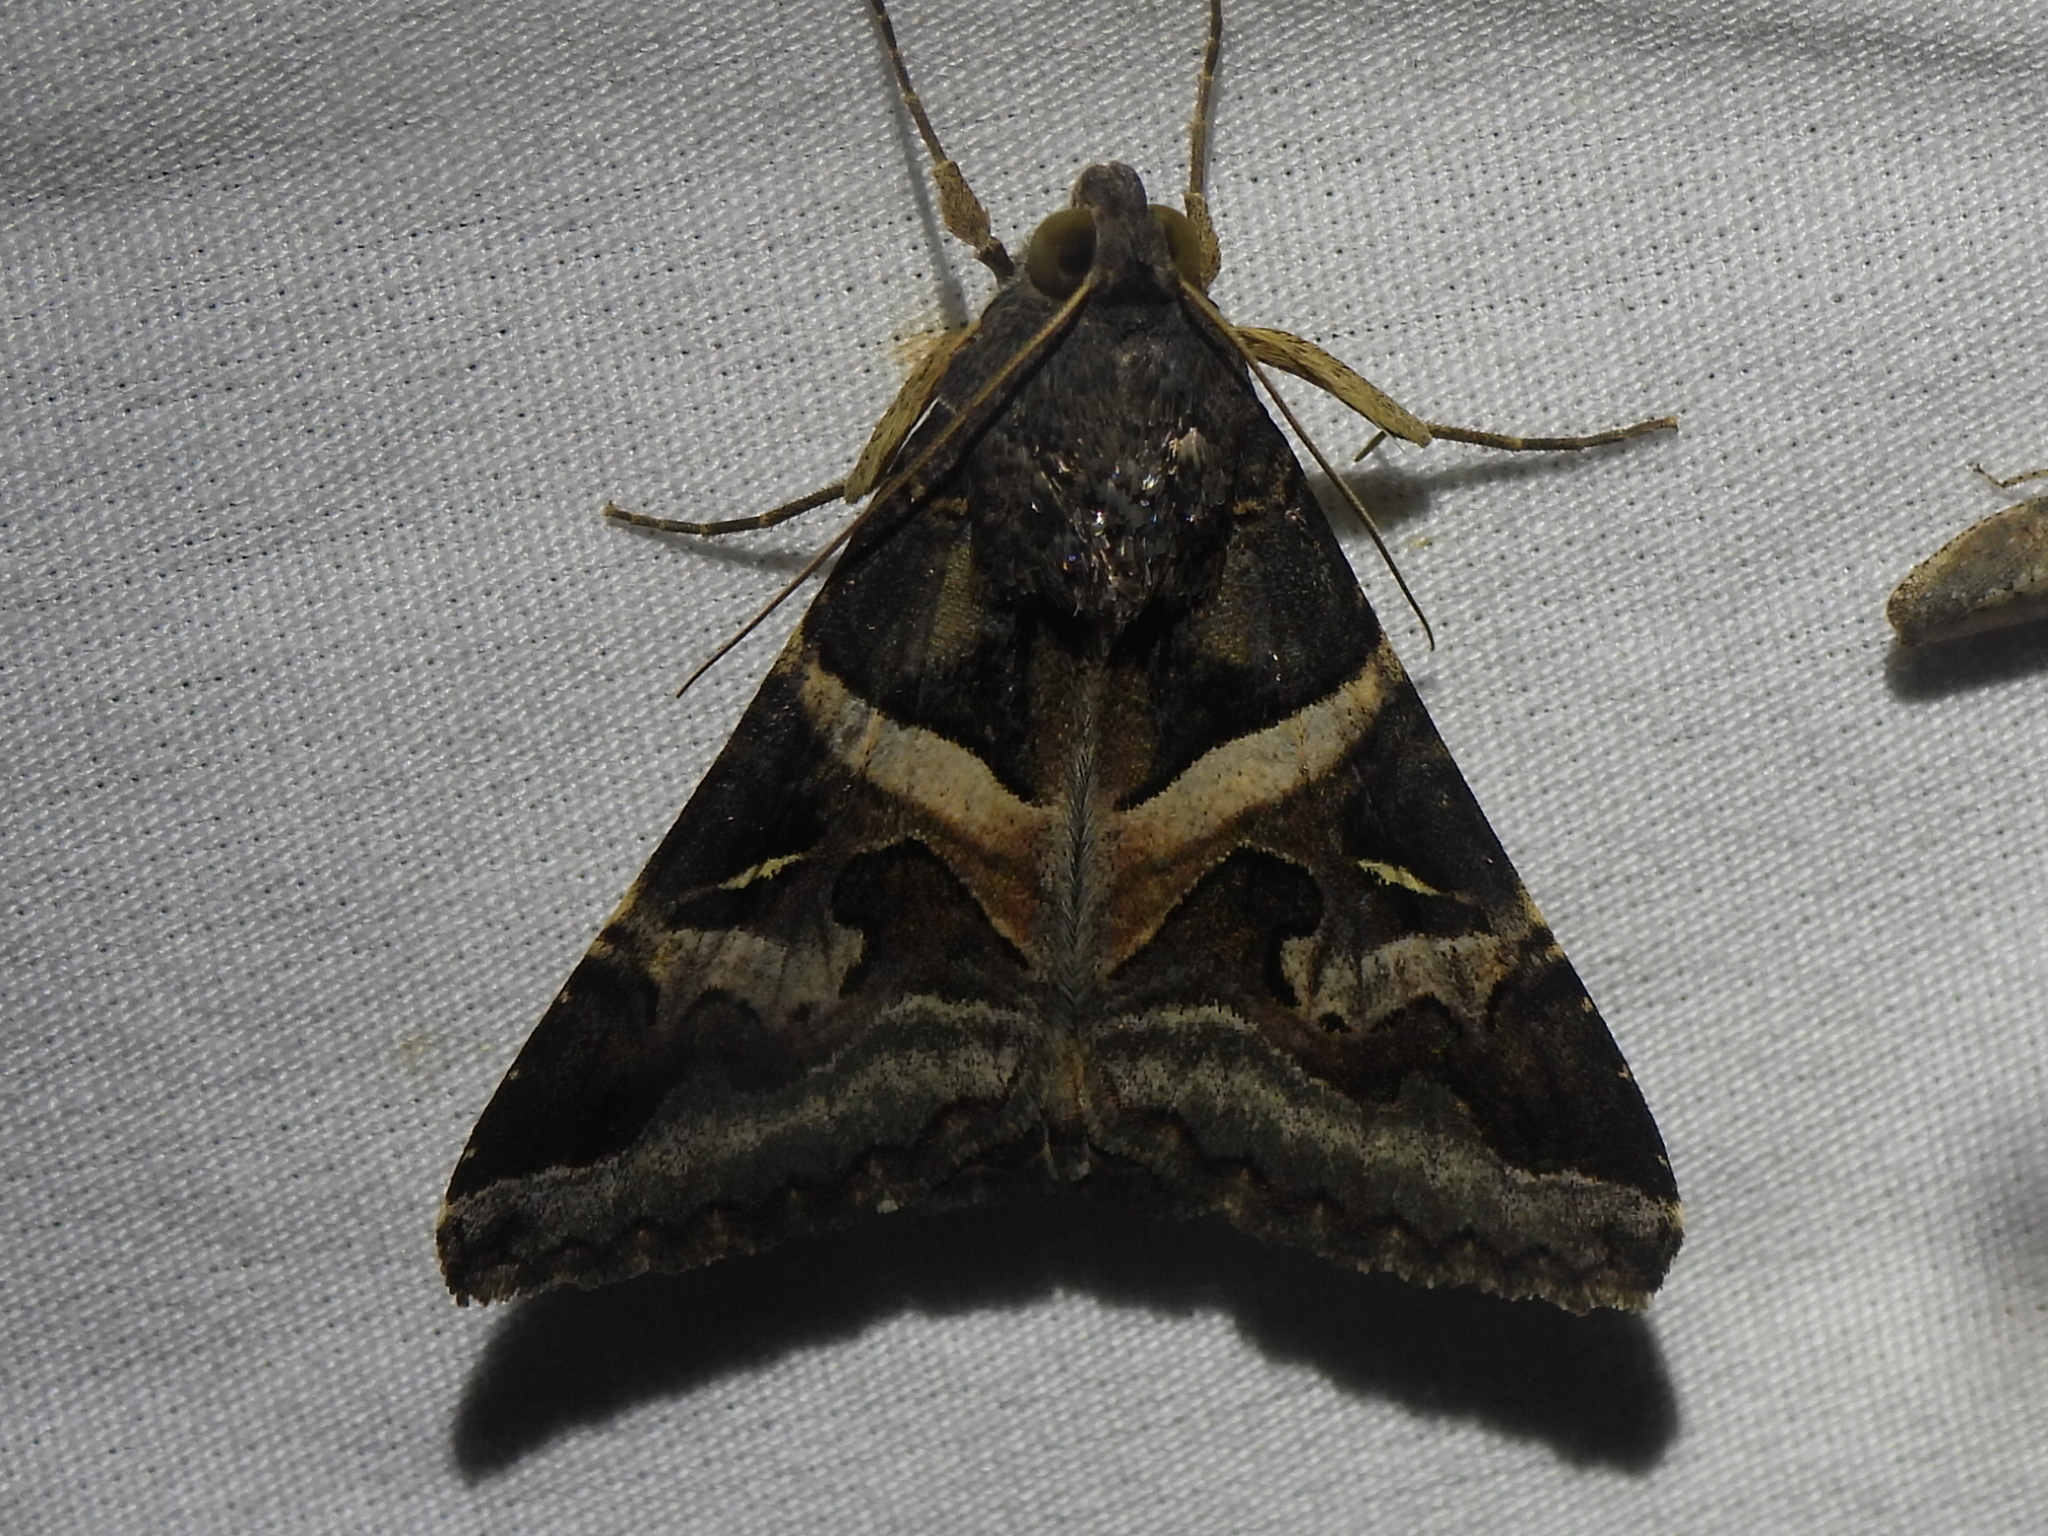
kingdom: Animalia
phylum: Arthropoda
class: Insecta
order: Lepidoptera
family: Erebidae
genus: Melipotis
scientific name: Melipotis indomita
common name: Moth
